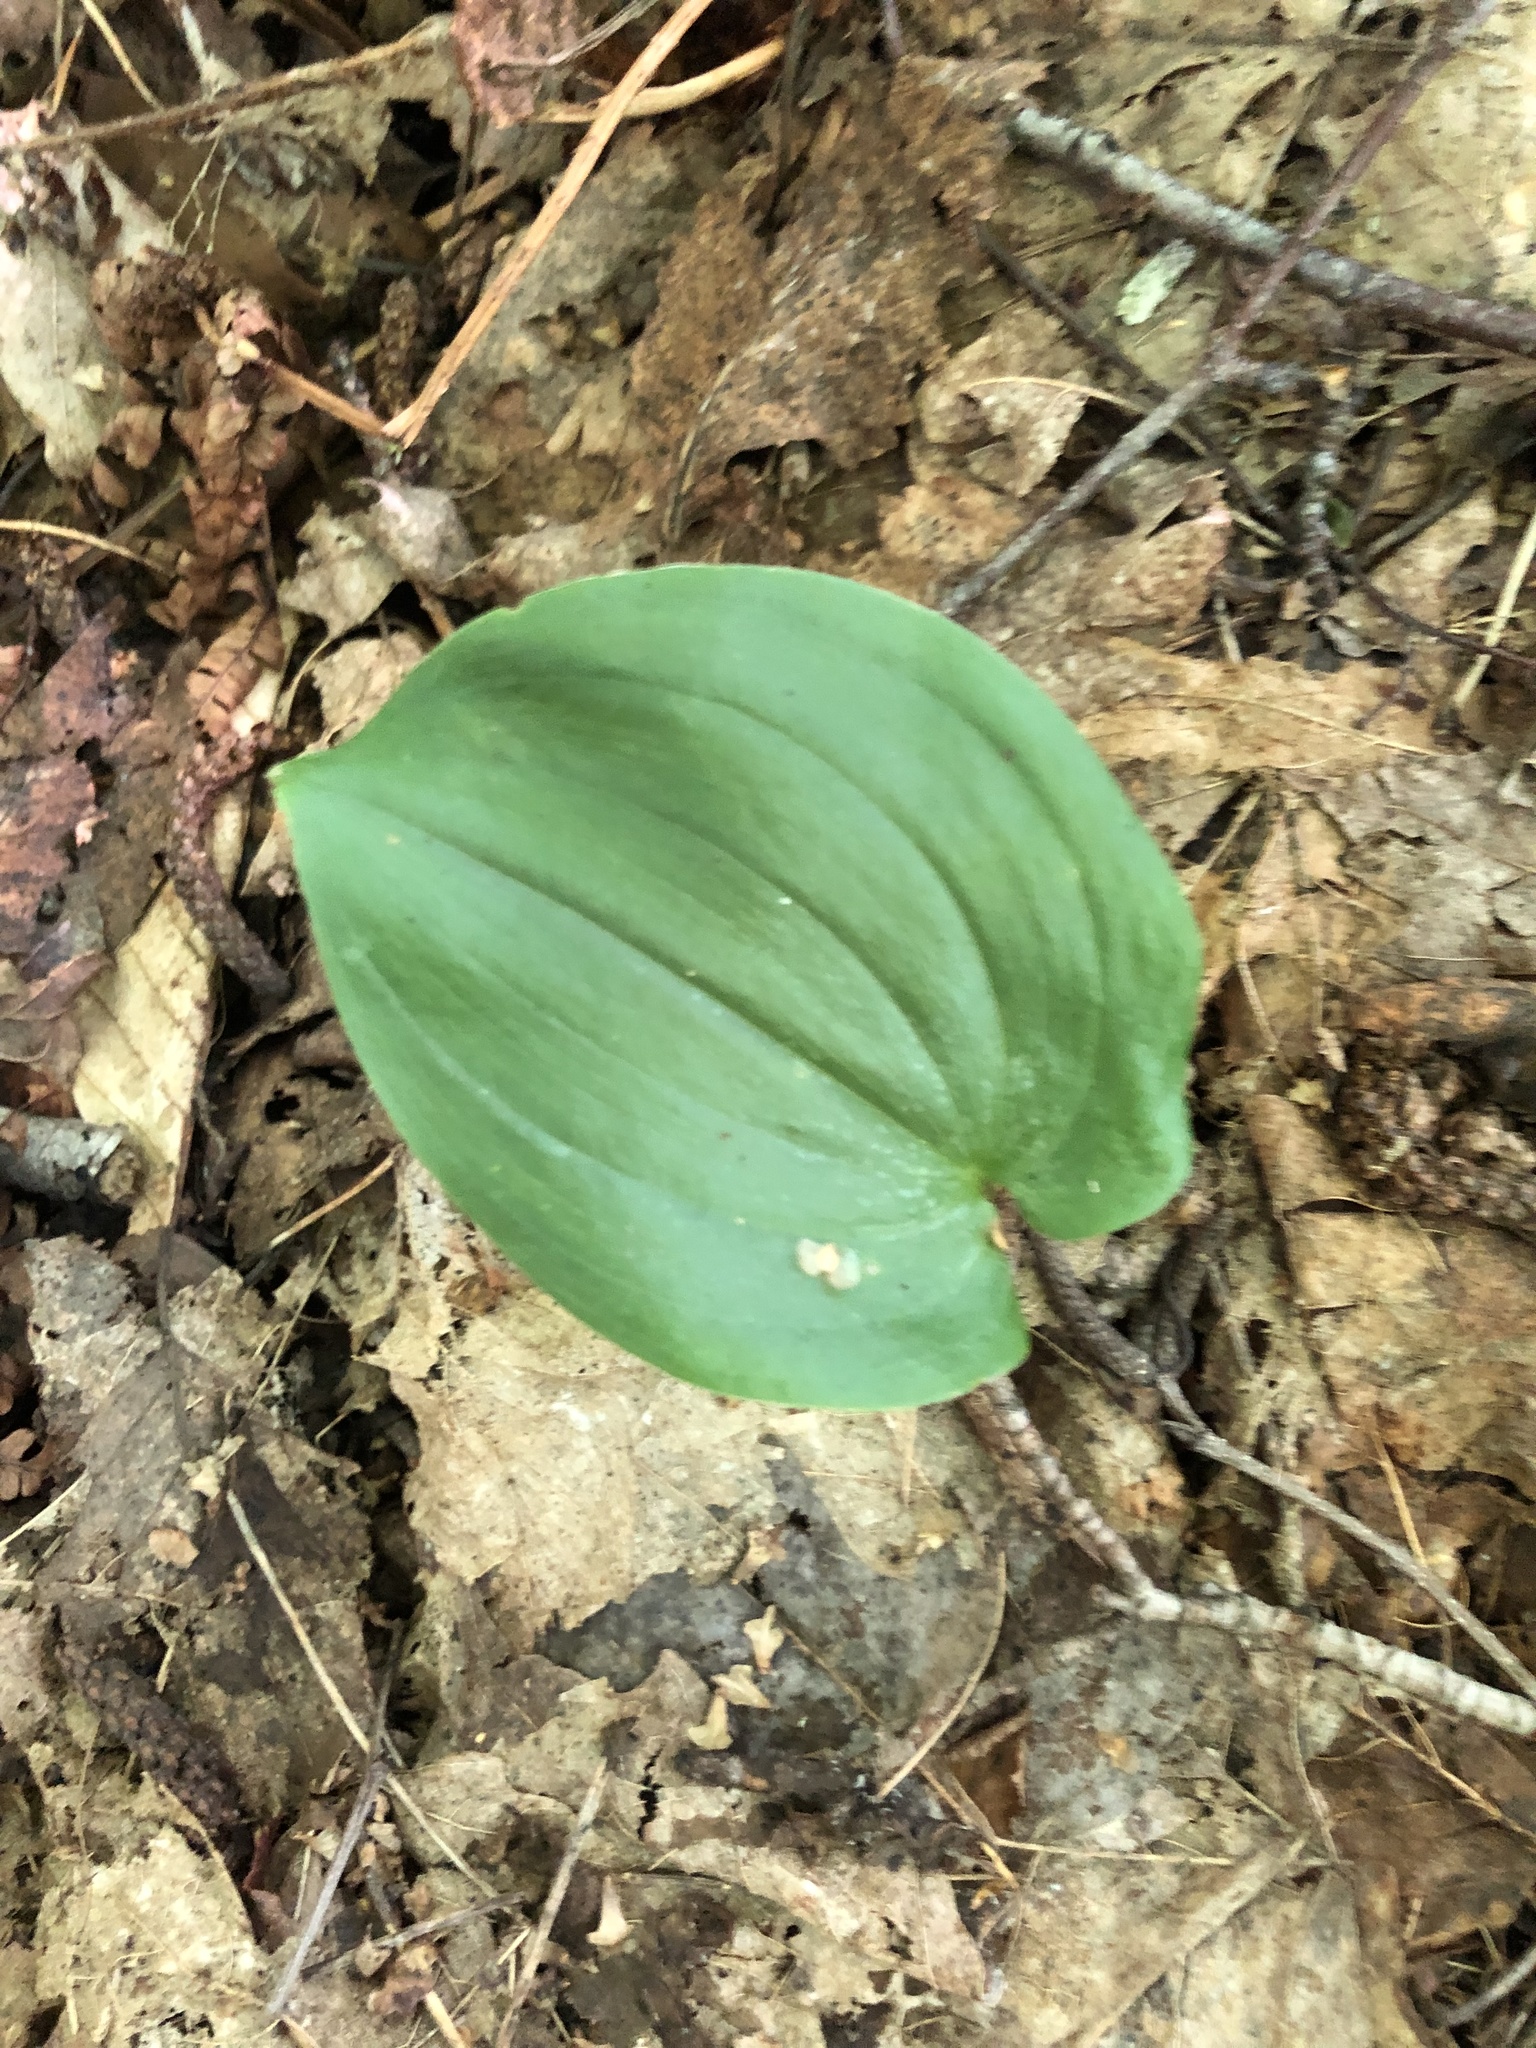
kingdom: Plantae
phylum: Tracheophyta
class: Liliopsida
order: Asparagales
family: Asparagaceae
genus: Maianthemum
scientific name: Maianthemum canadense
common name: False lily-of-the-valley
